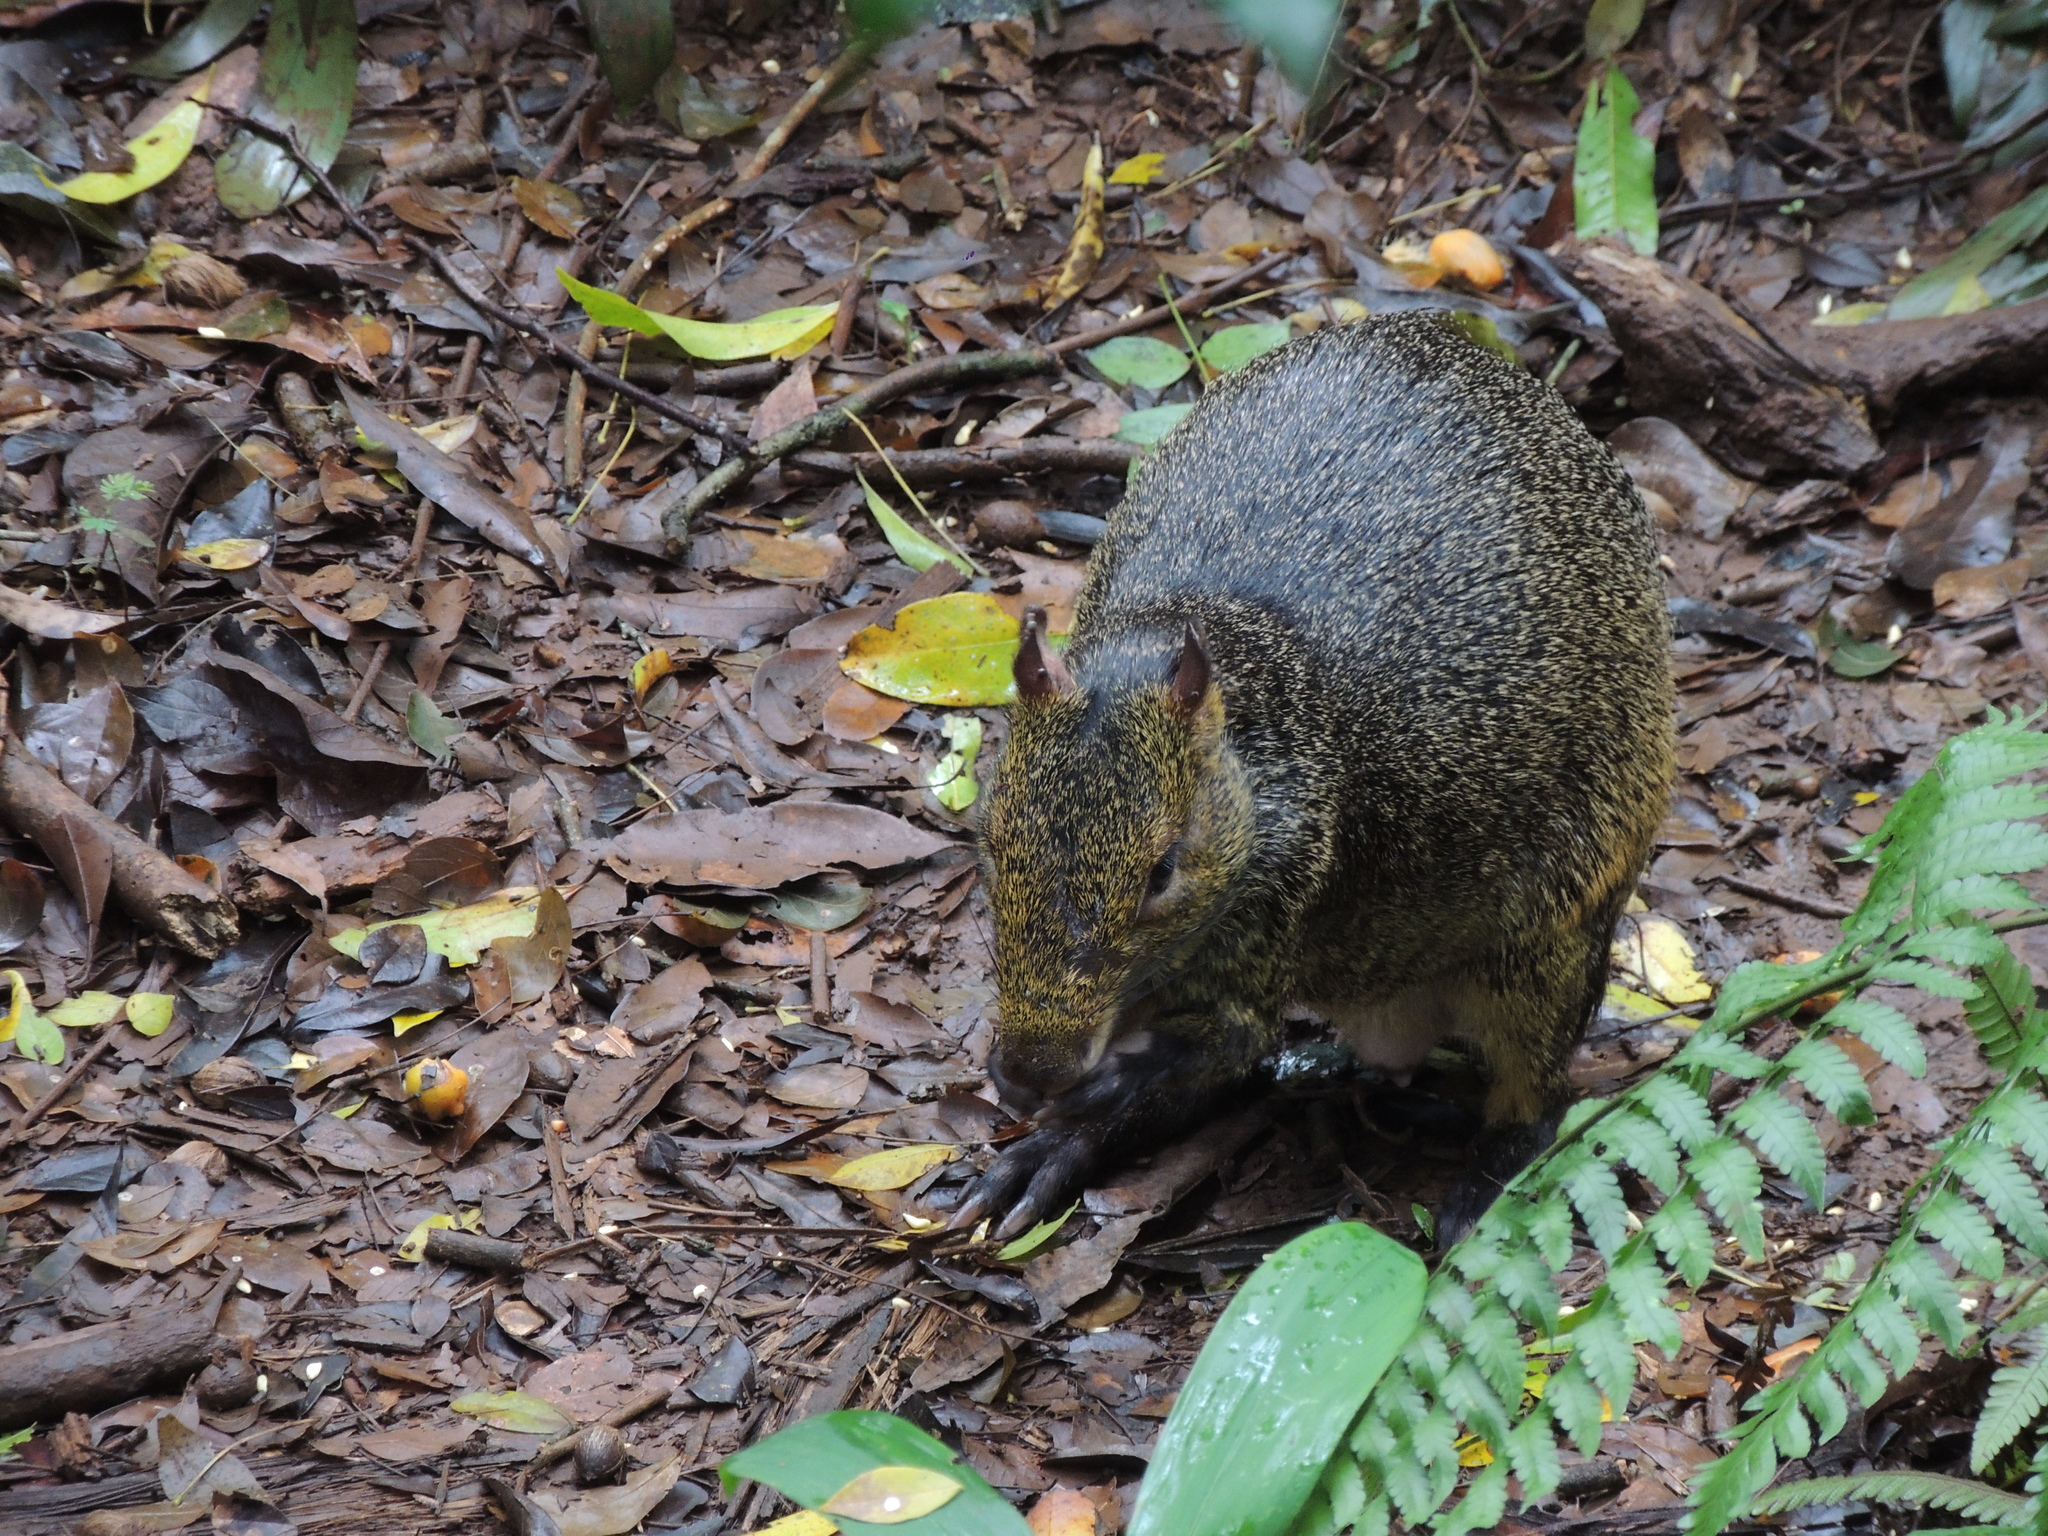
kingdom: Animalia
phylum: Chordata
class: Mammalia
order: Rodentia
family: Dasyproctidae
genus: Dasyprocta
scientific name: Dasyprocta azarae
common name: Azara's agouti
